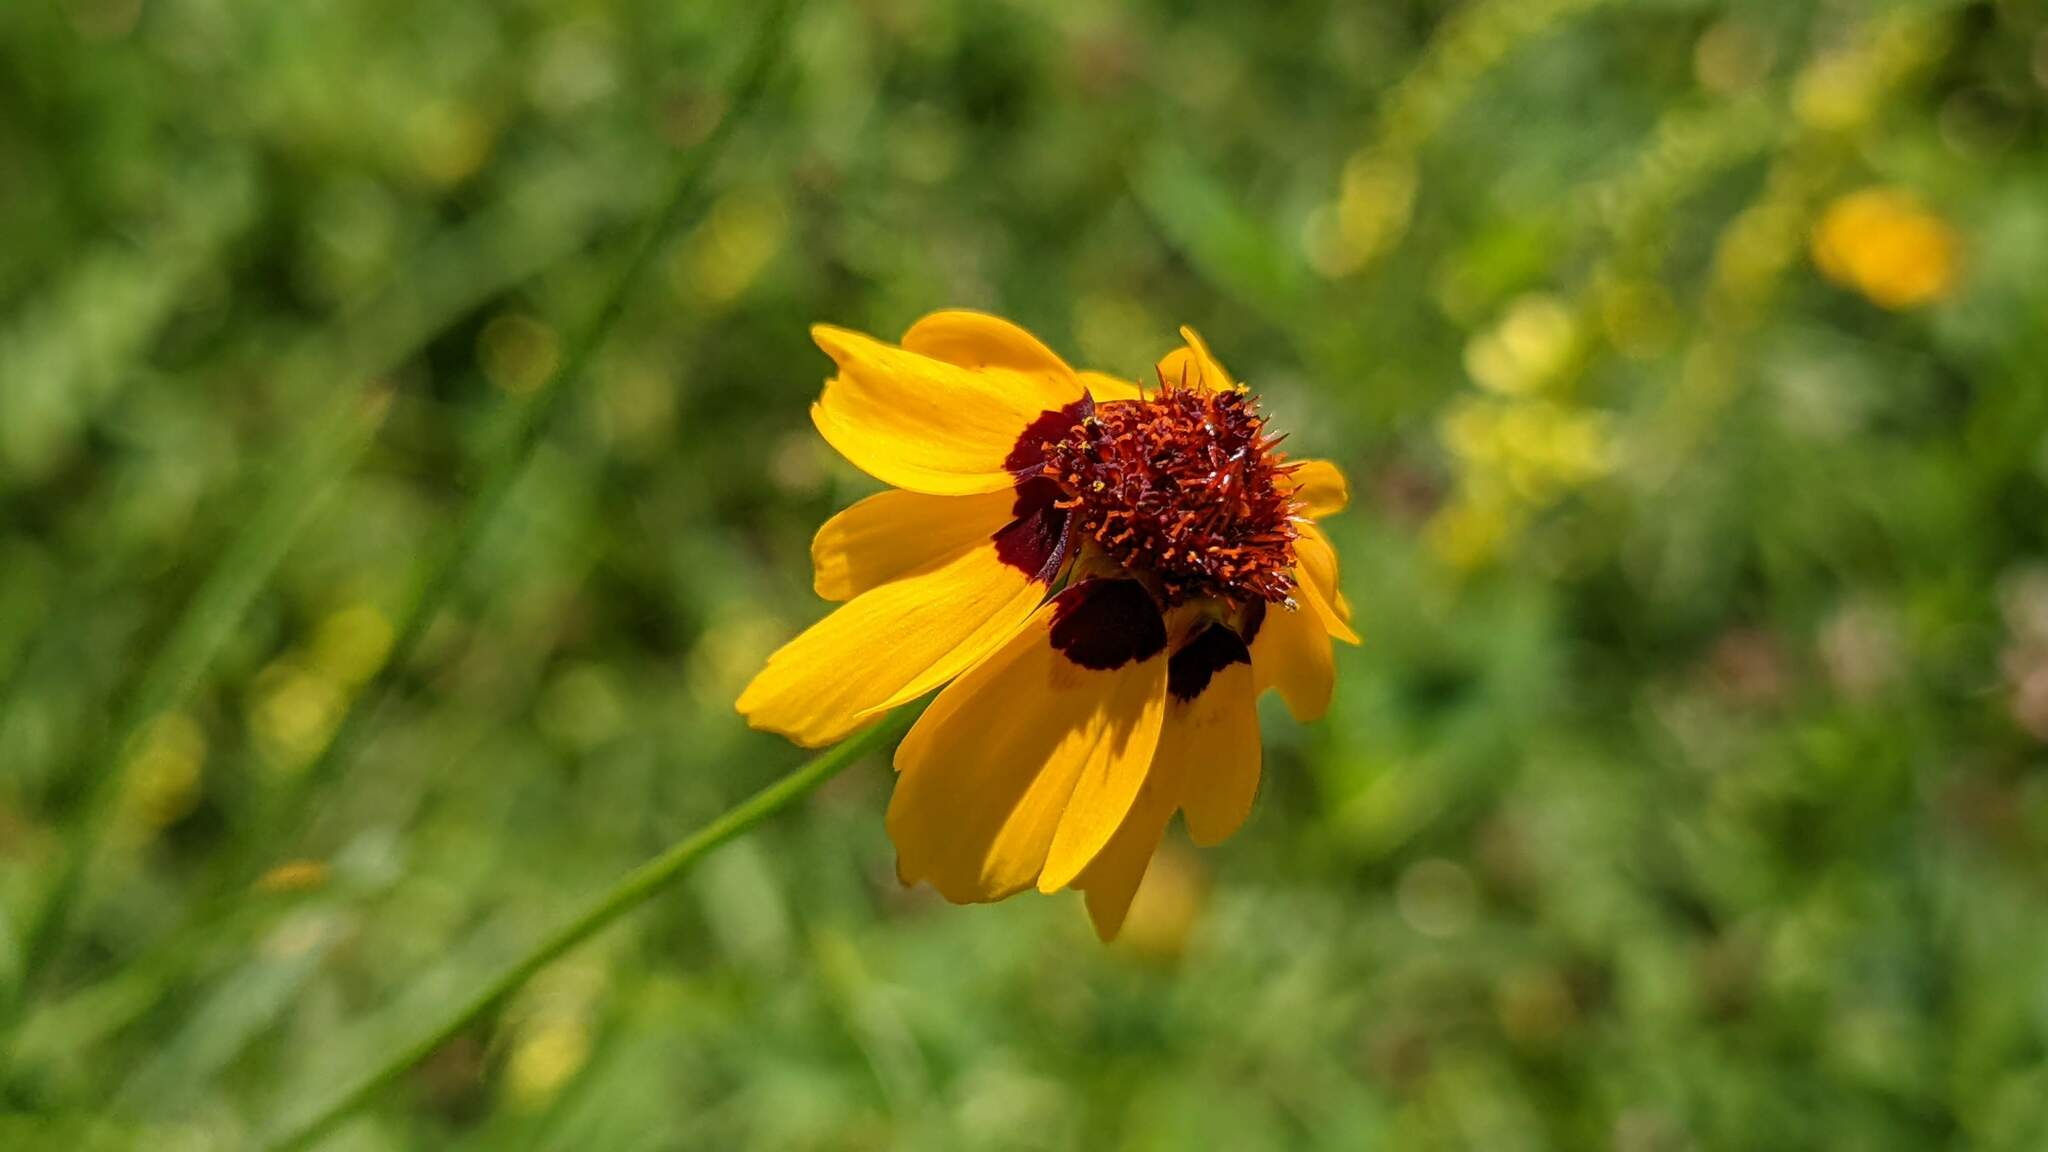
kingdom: Plantae
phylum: Tracheophyta
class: Magnoliopsida
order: Asterales
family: Asteraceae
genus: Coreopsis
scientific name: Coreopsis tinctoria
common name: Garden tickseed
